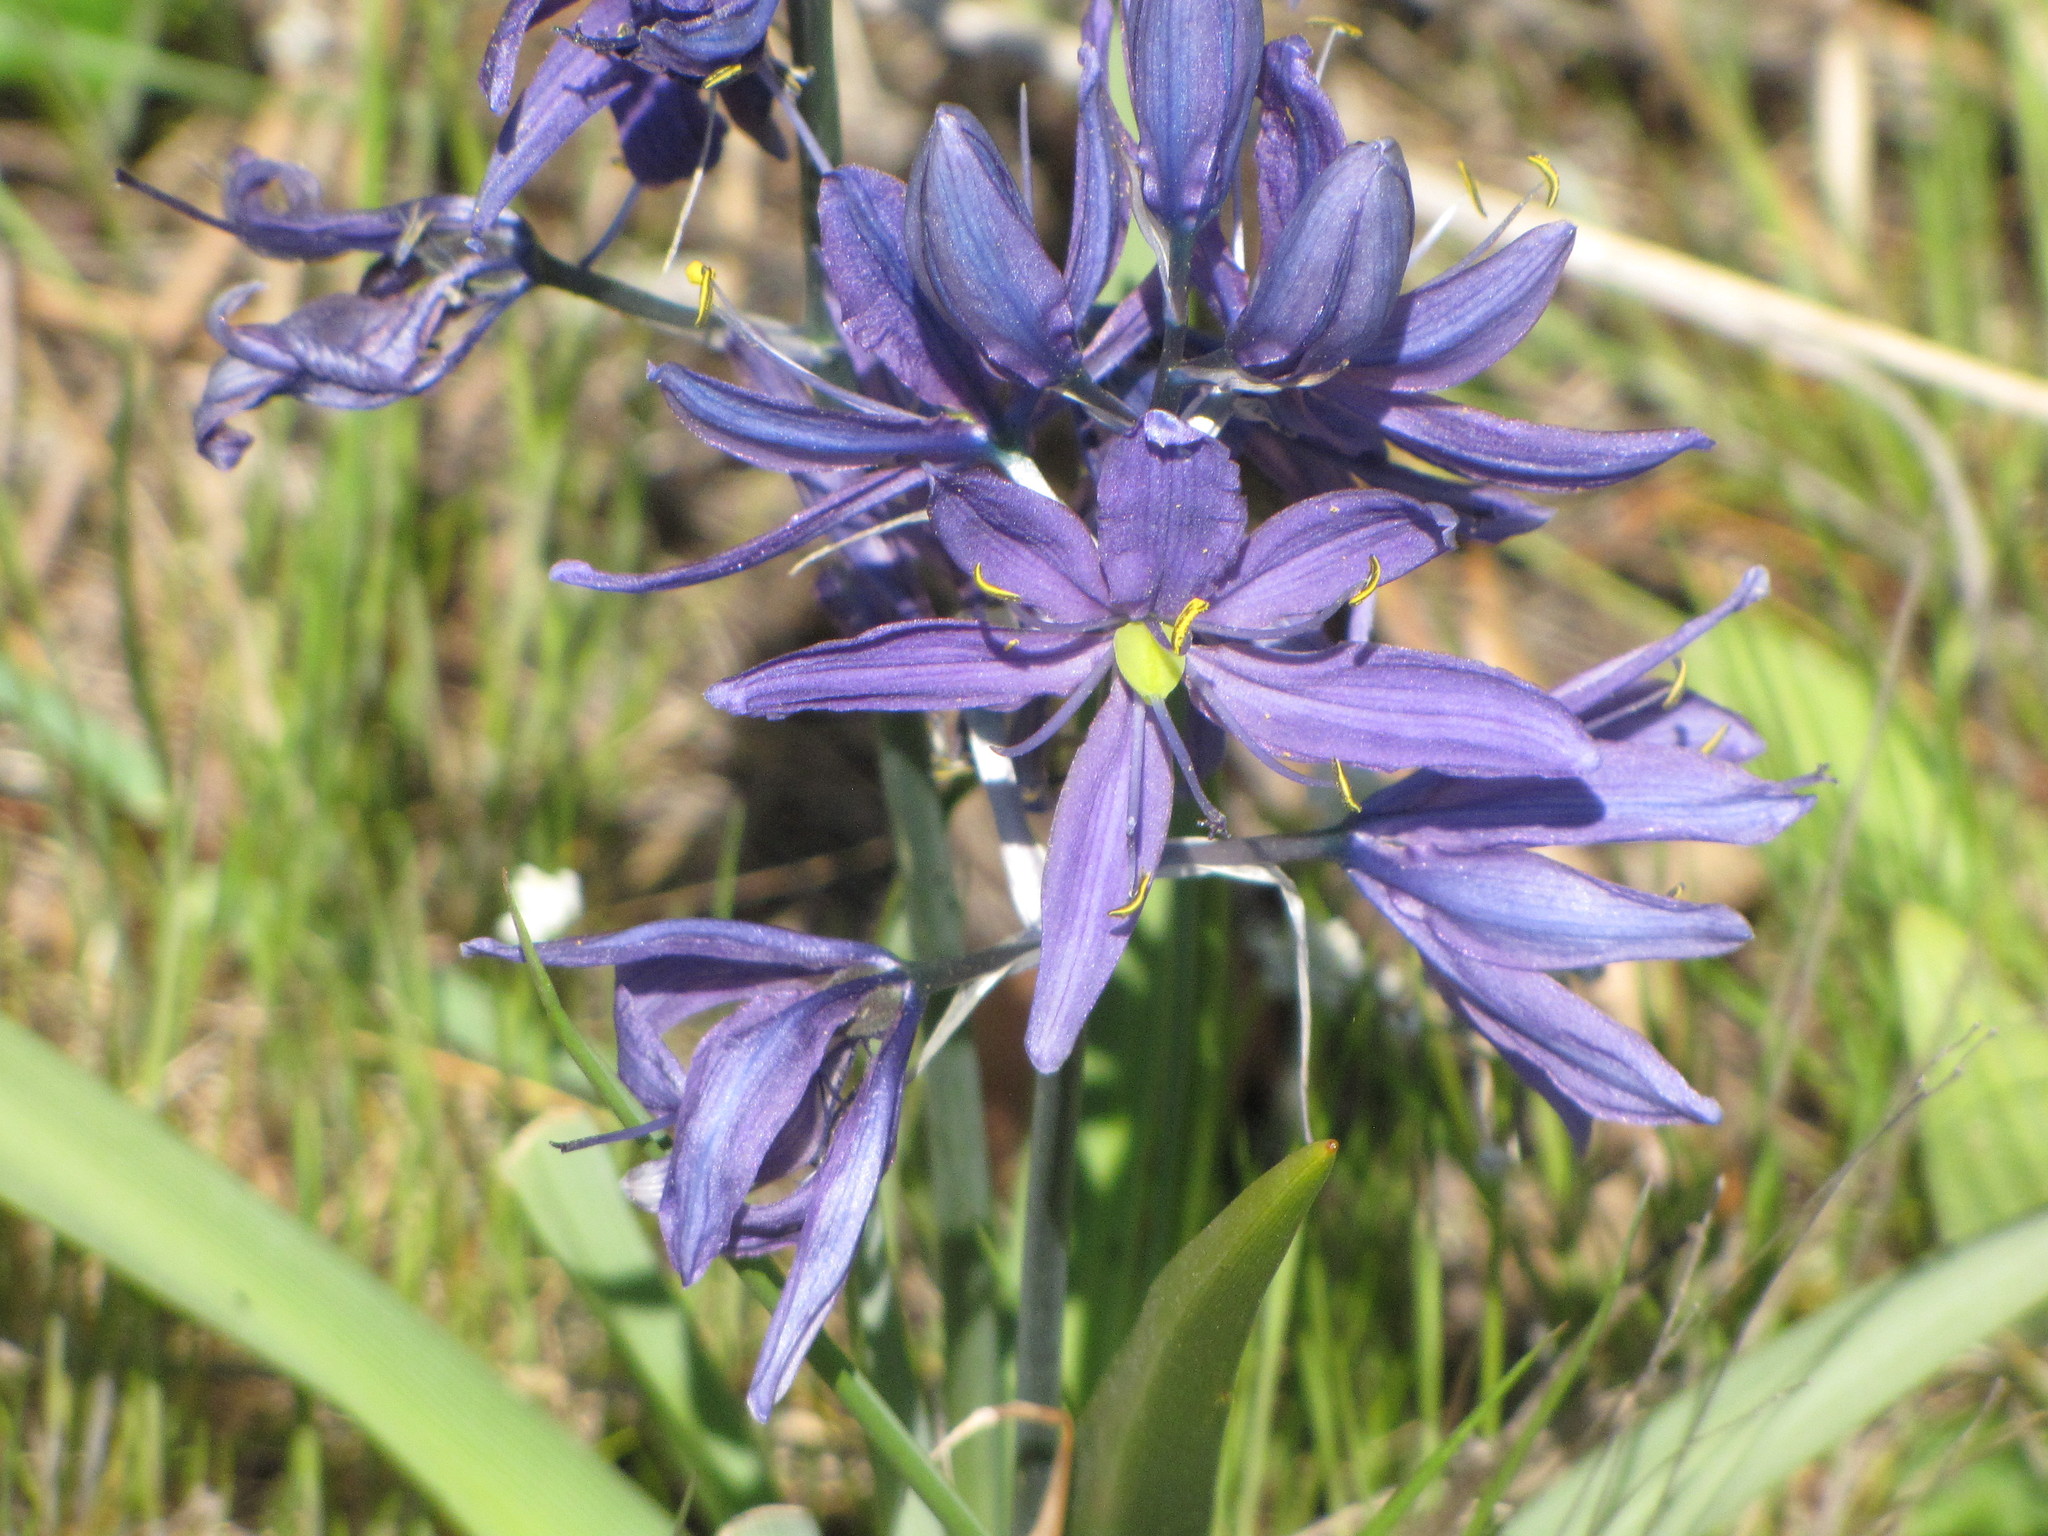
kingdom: Plantae
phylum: Tracheophyta
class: Liliopsida
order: Asparagales
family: Asparagaceae
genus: Camassia
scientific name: Camassia quamash
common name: Common camas
